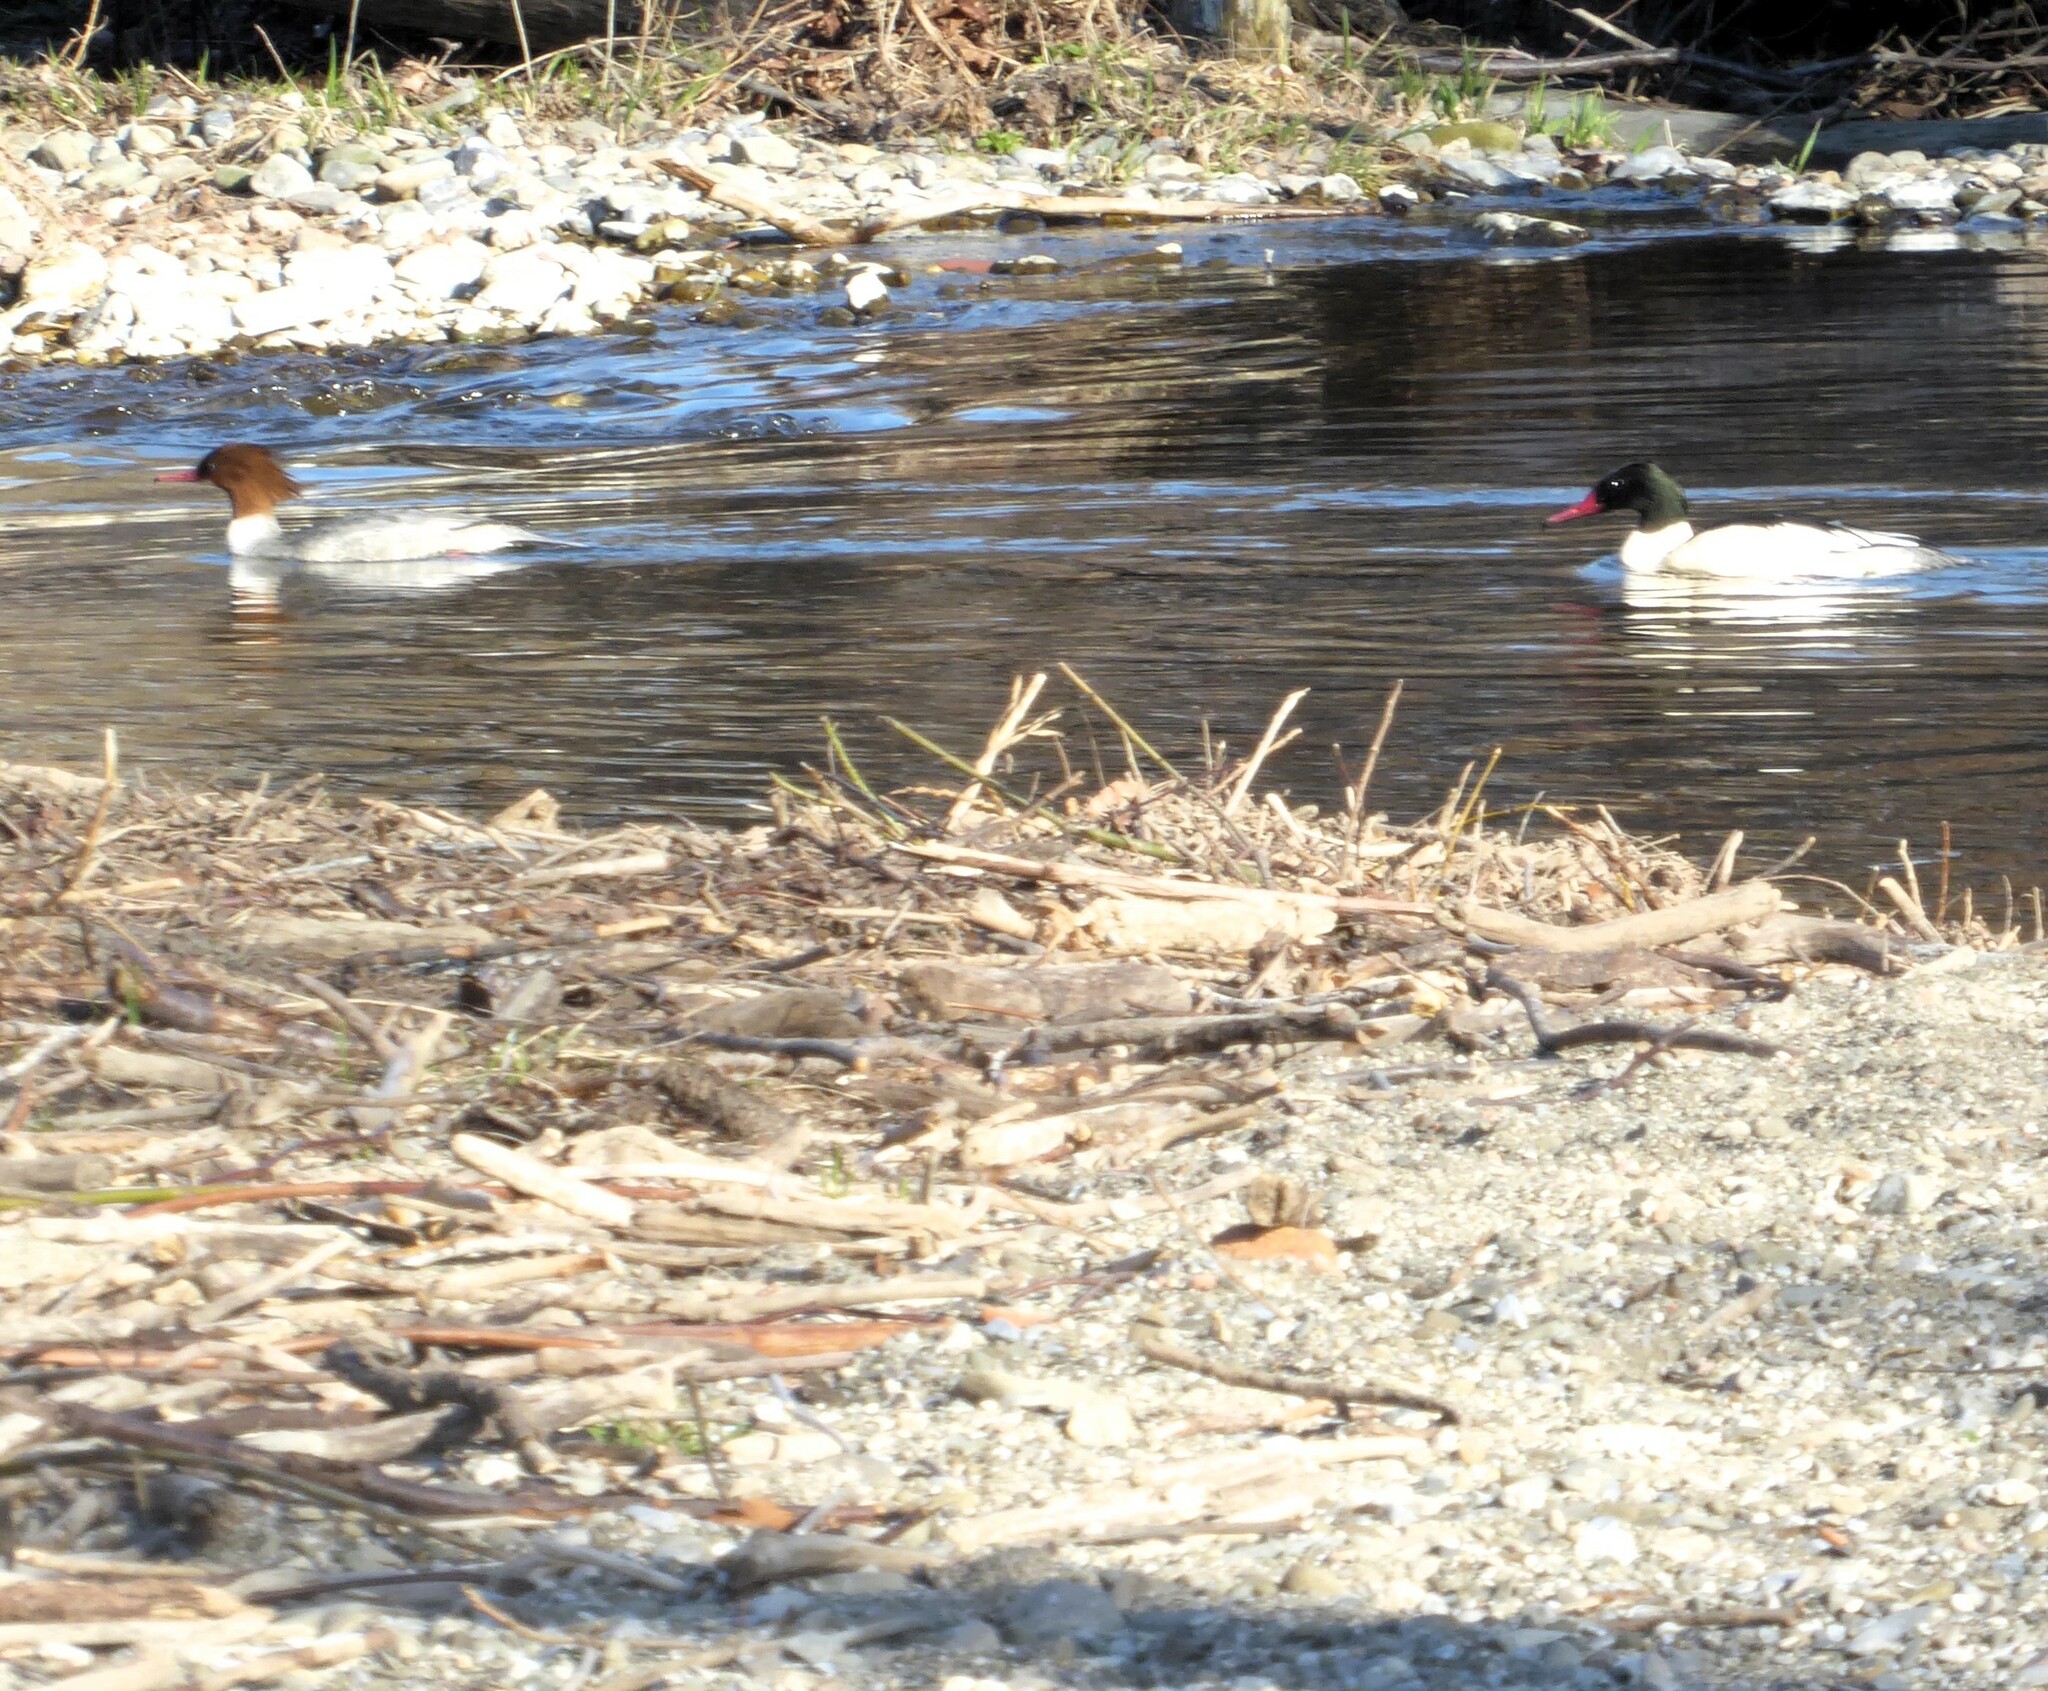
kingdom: Animalia
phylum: Chordata
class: Aves
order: Anseriformes
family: Anatidae
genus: Mergus
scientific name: Mergus merganser
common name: Common merganser
